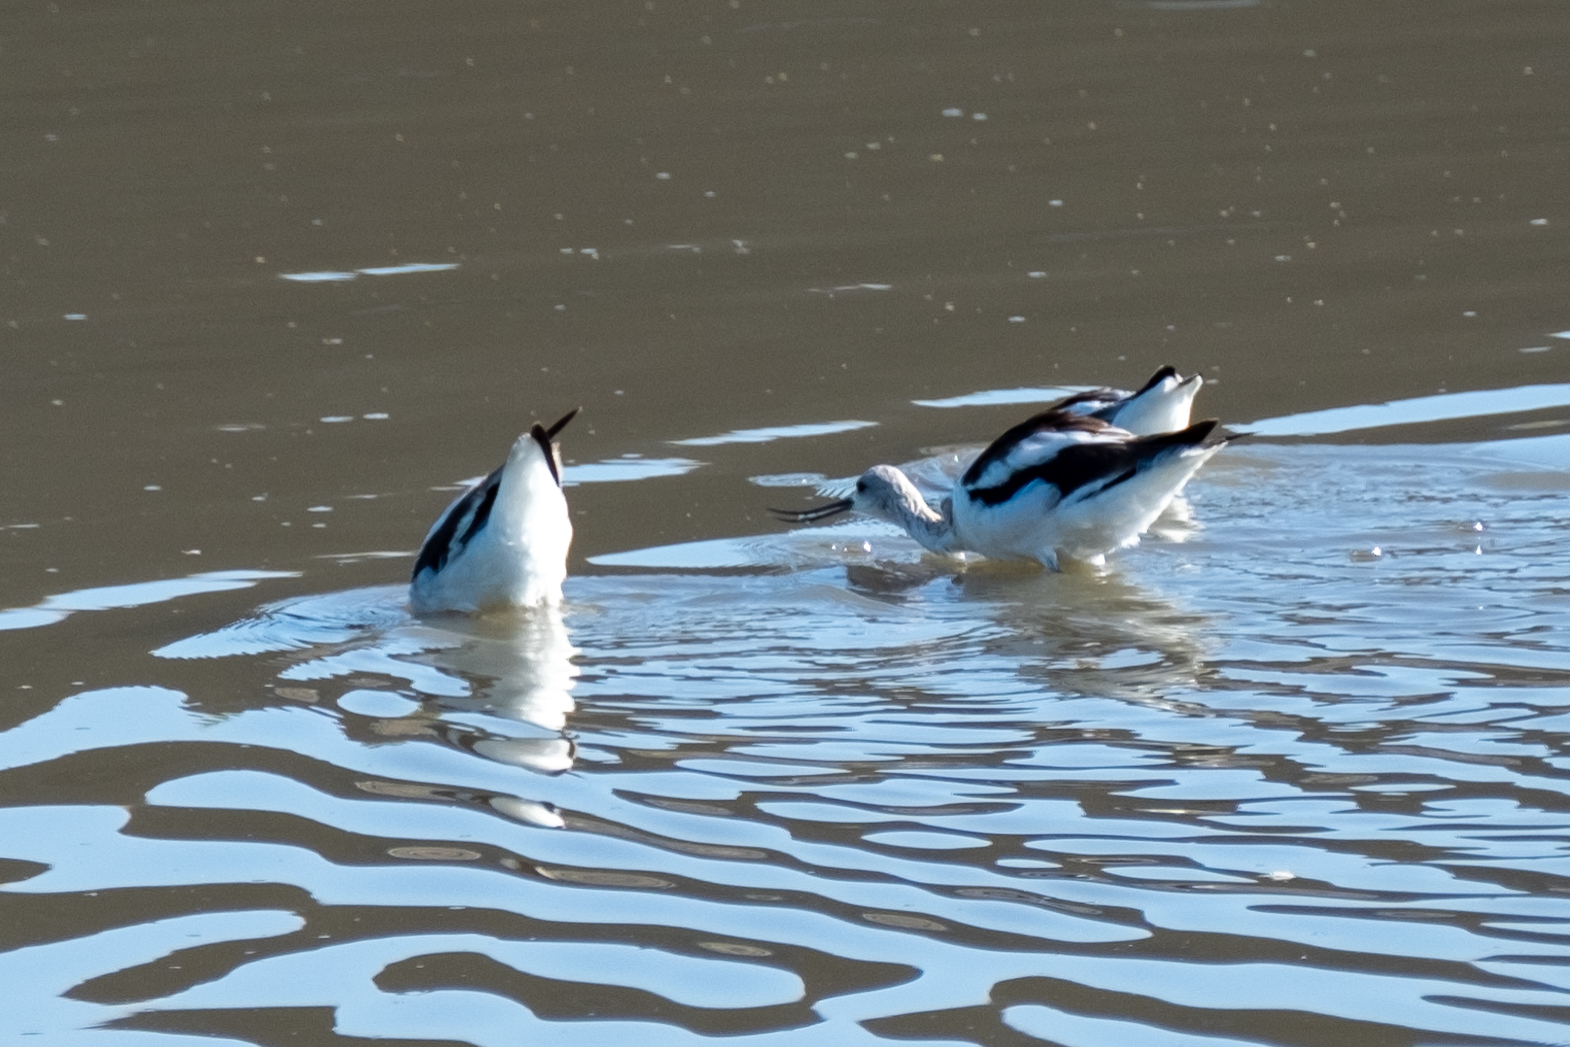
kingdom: Animalia
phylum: Chordata
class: Aves
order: Charadriiformes
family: Recurvirostridae
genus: Recurvirostra
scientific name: Recurvirostra americana
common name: American avocet
